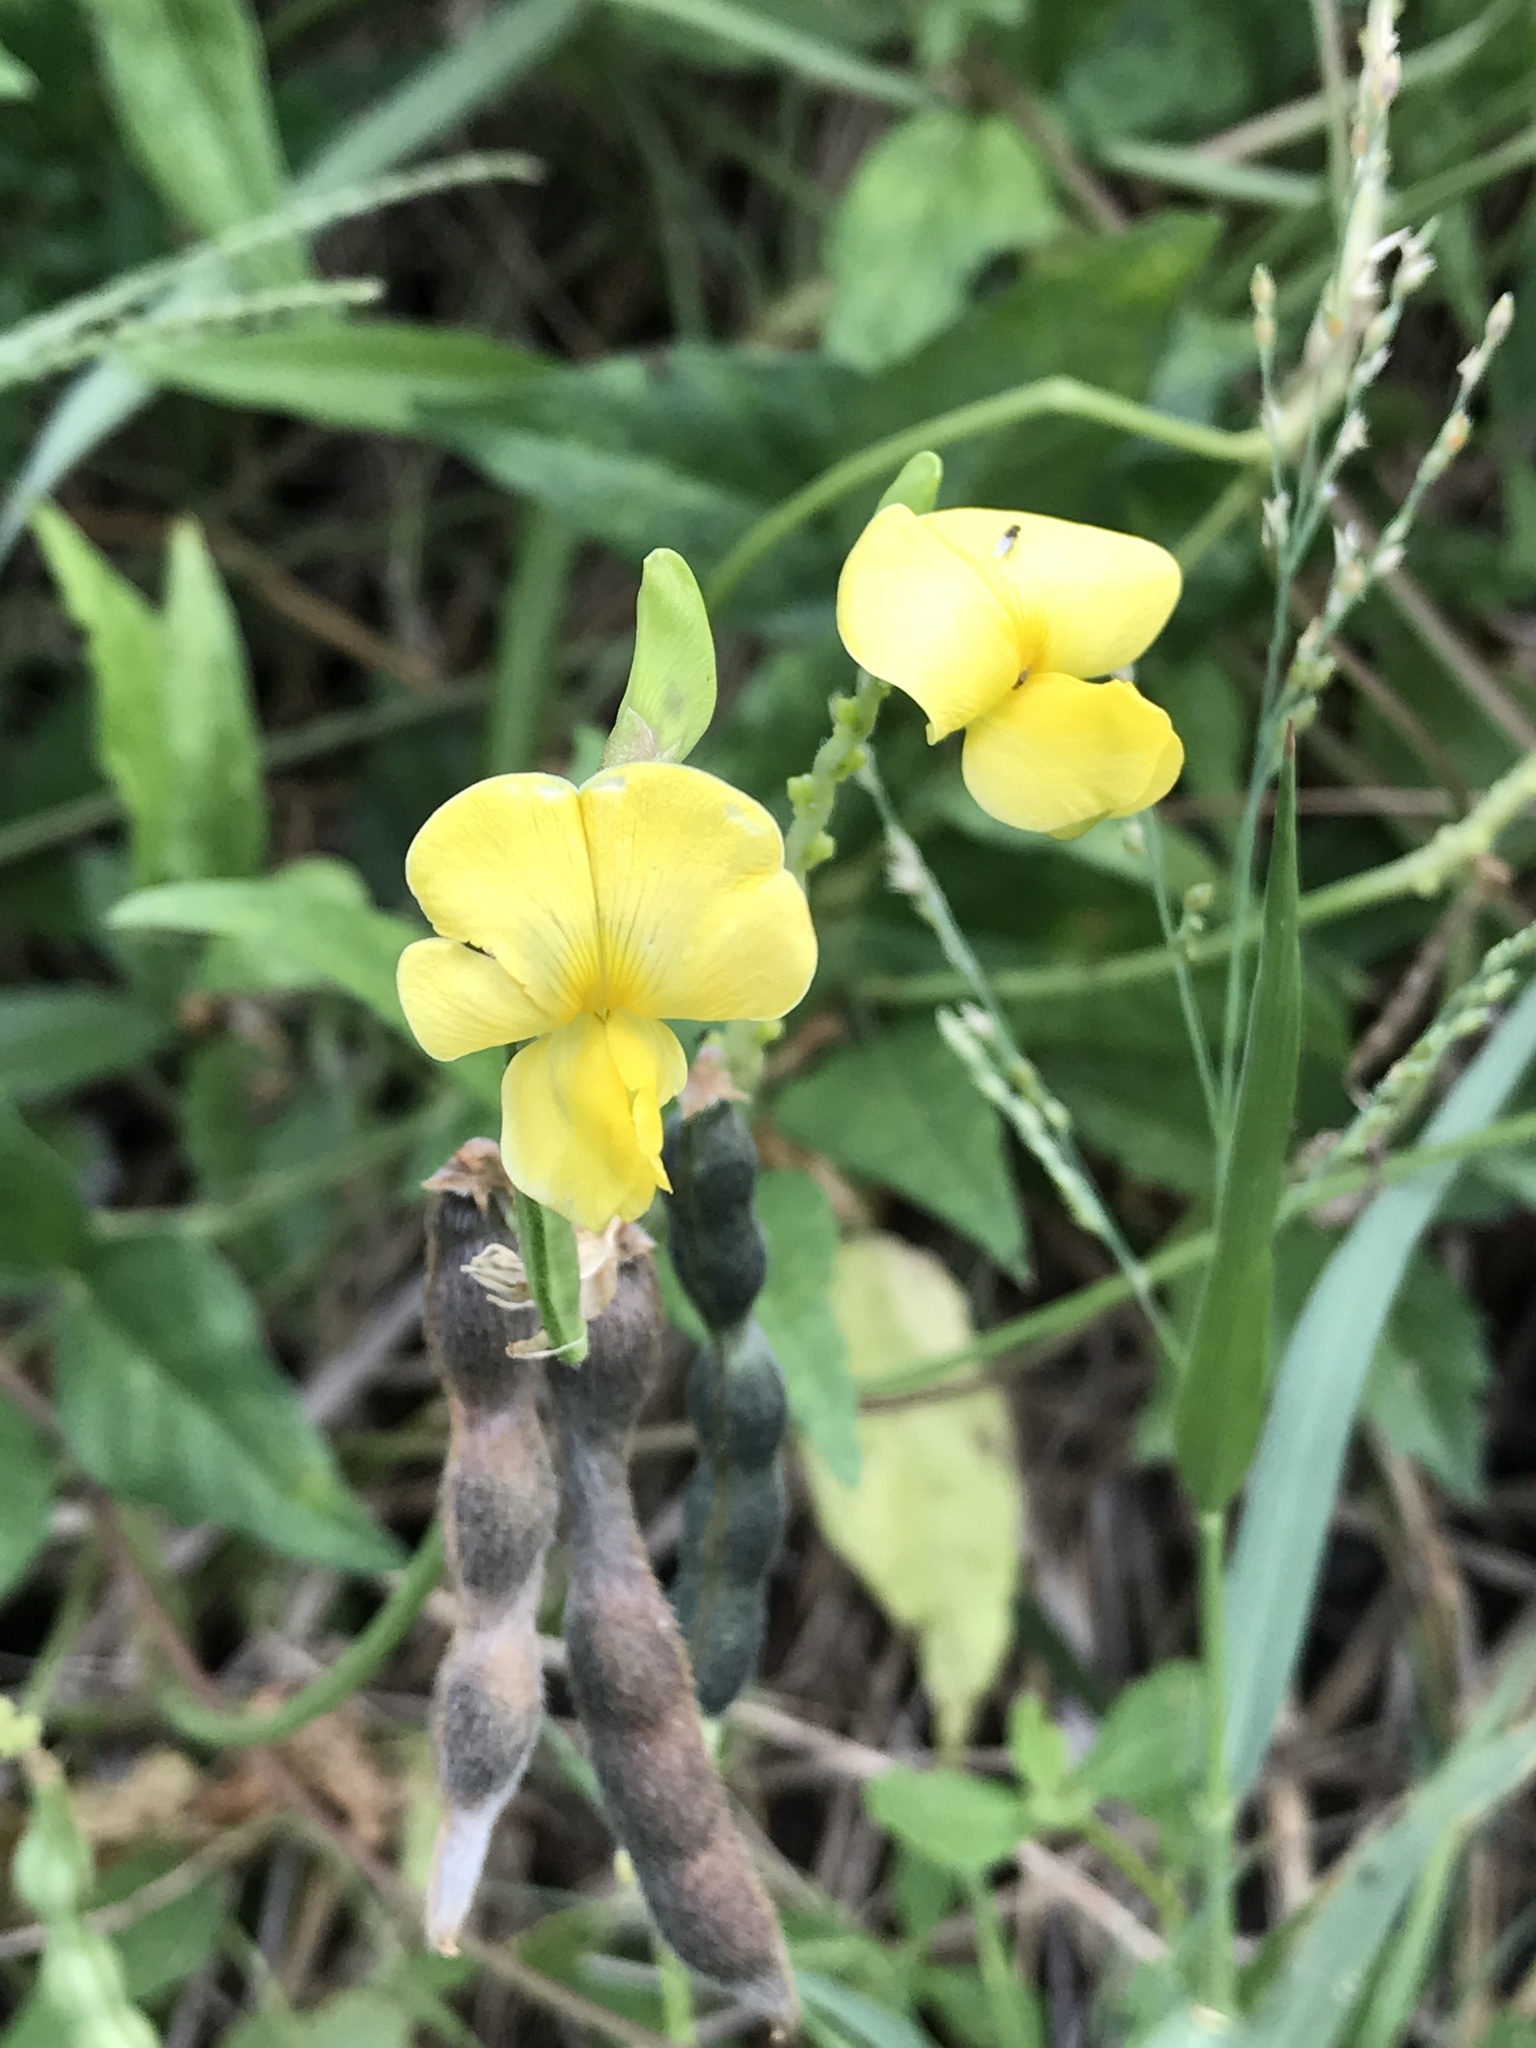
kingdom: Plantae
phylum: Tracheophyta
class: Magnoliopsida
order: Fabales
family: Fabaceae
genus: Vigna
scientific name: Vigna luteola
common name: Hairypod cowpea
